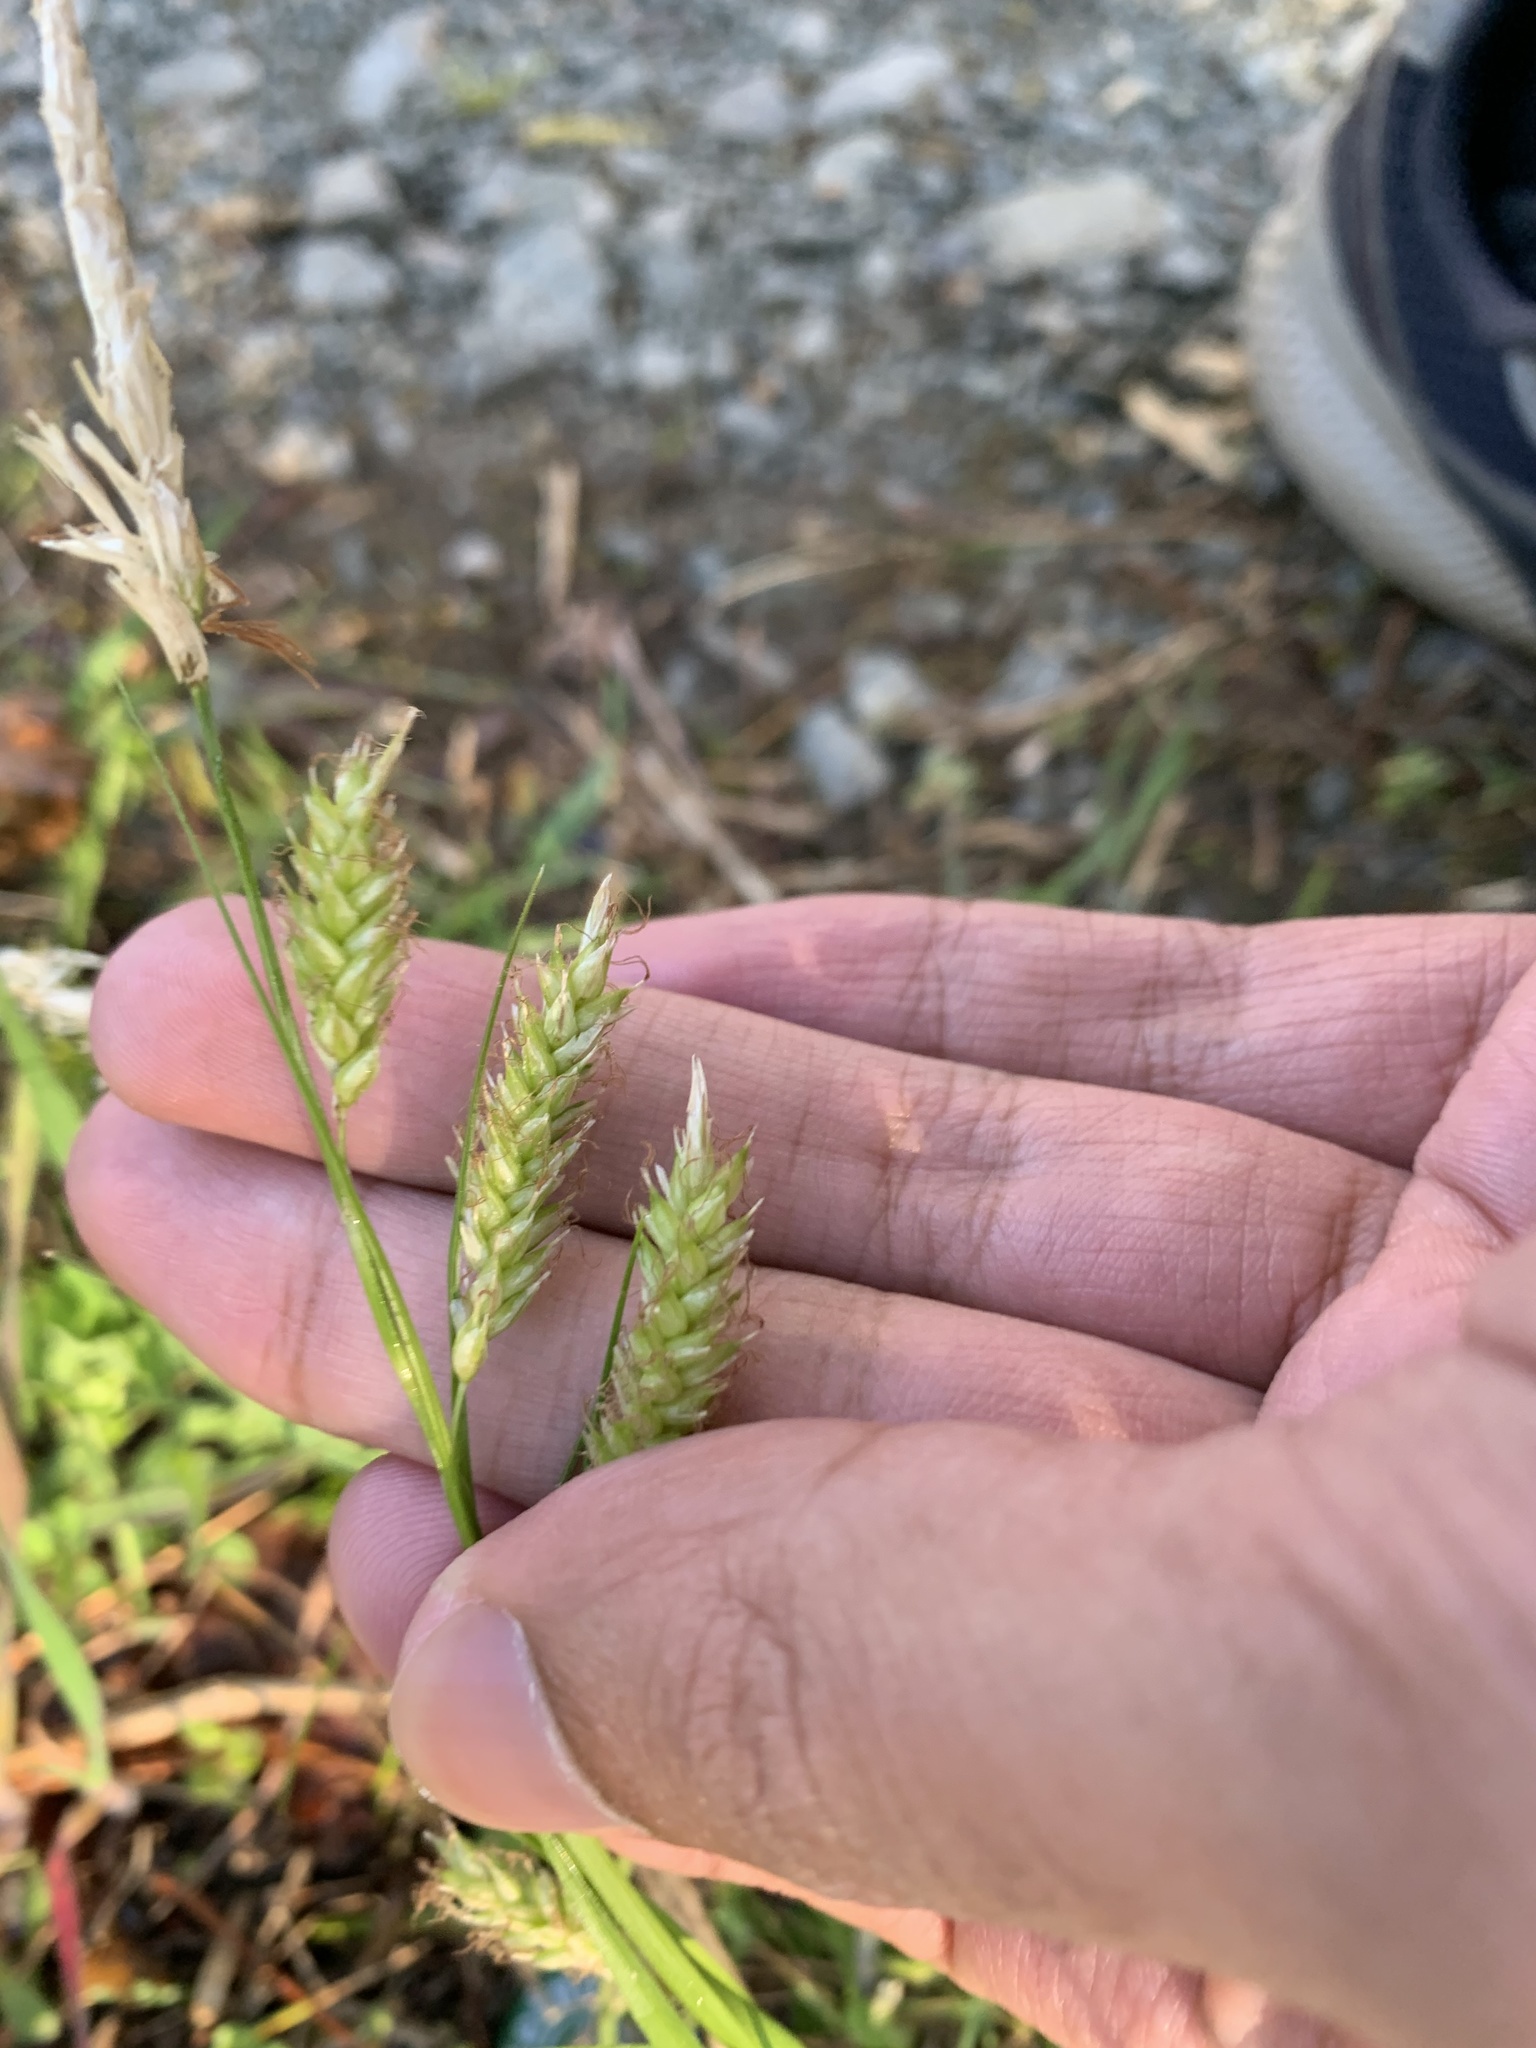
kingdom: Plantae
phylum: Tracheophyta
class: Liliopsida
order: Poales
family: Cyperaceae
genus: Carex
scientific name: Carex cherokeensis
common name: Cherokee sedge
